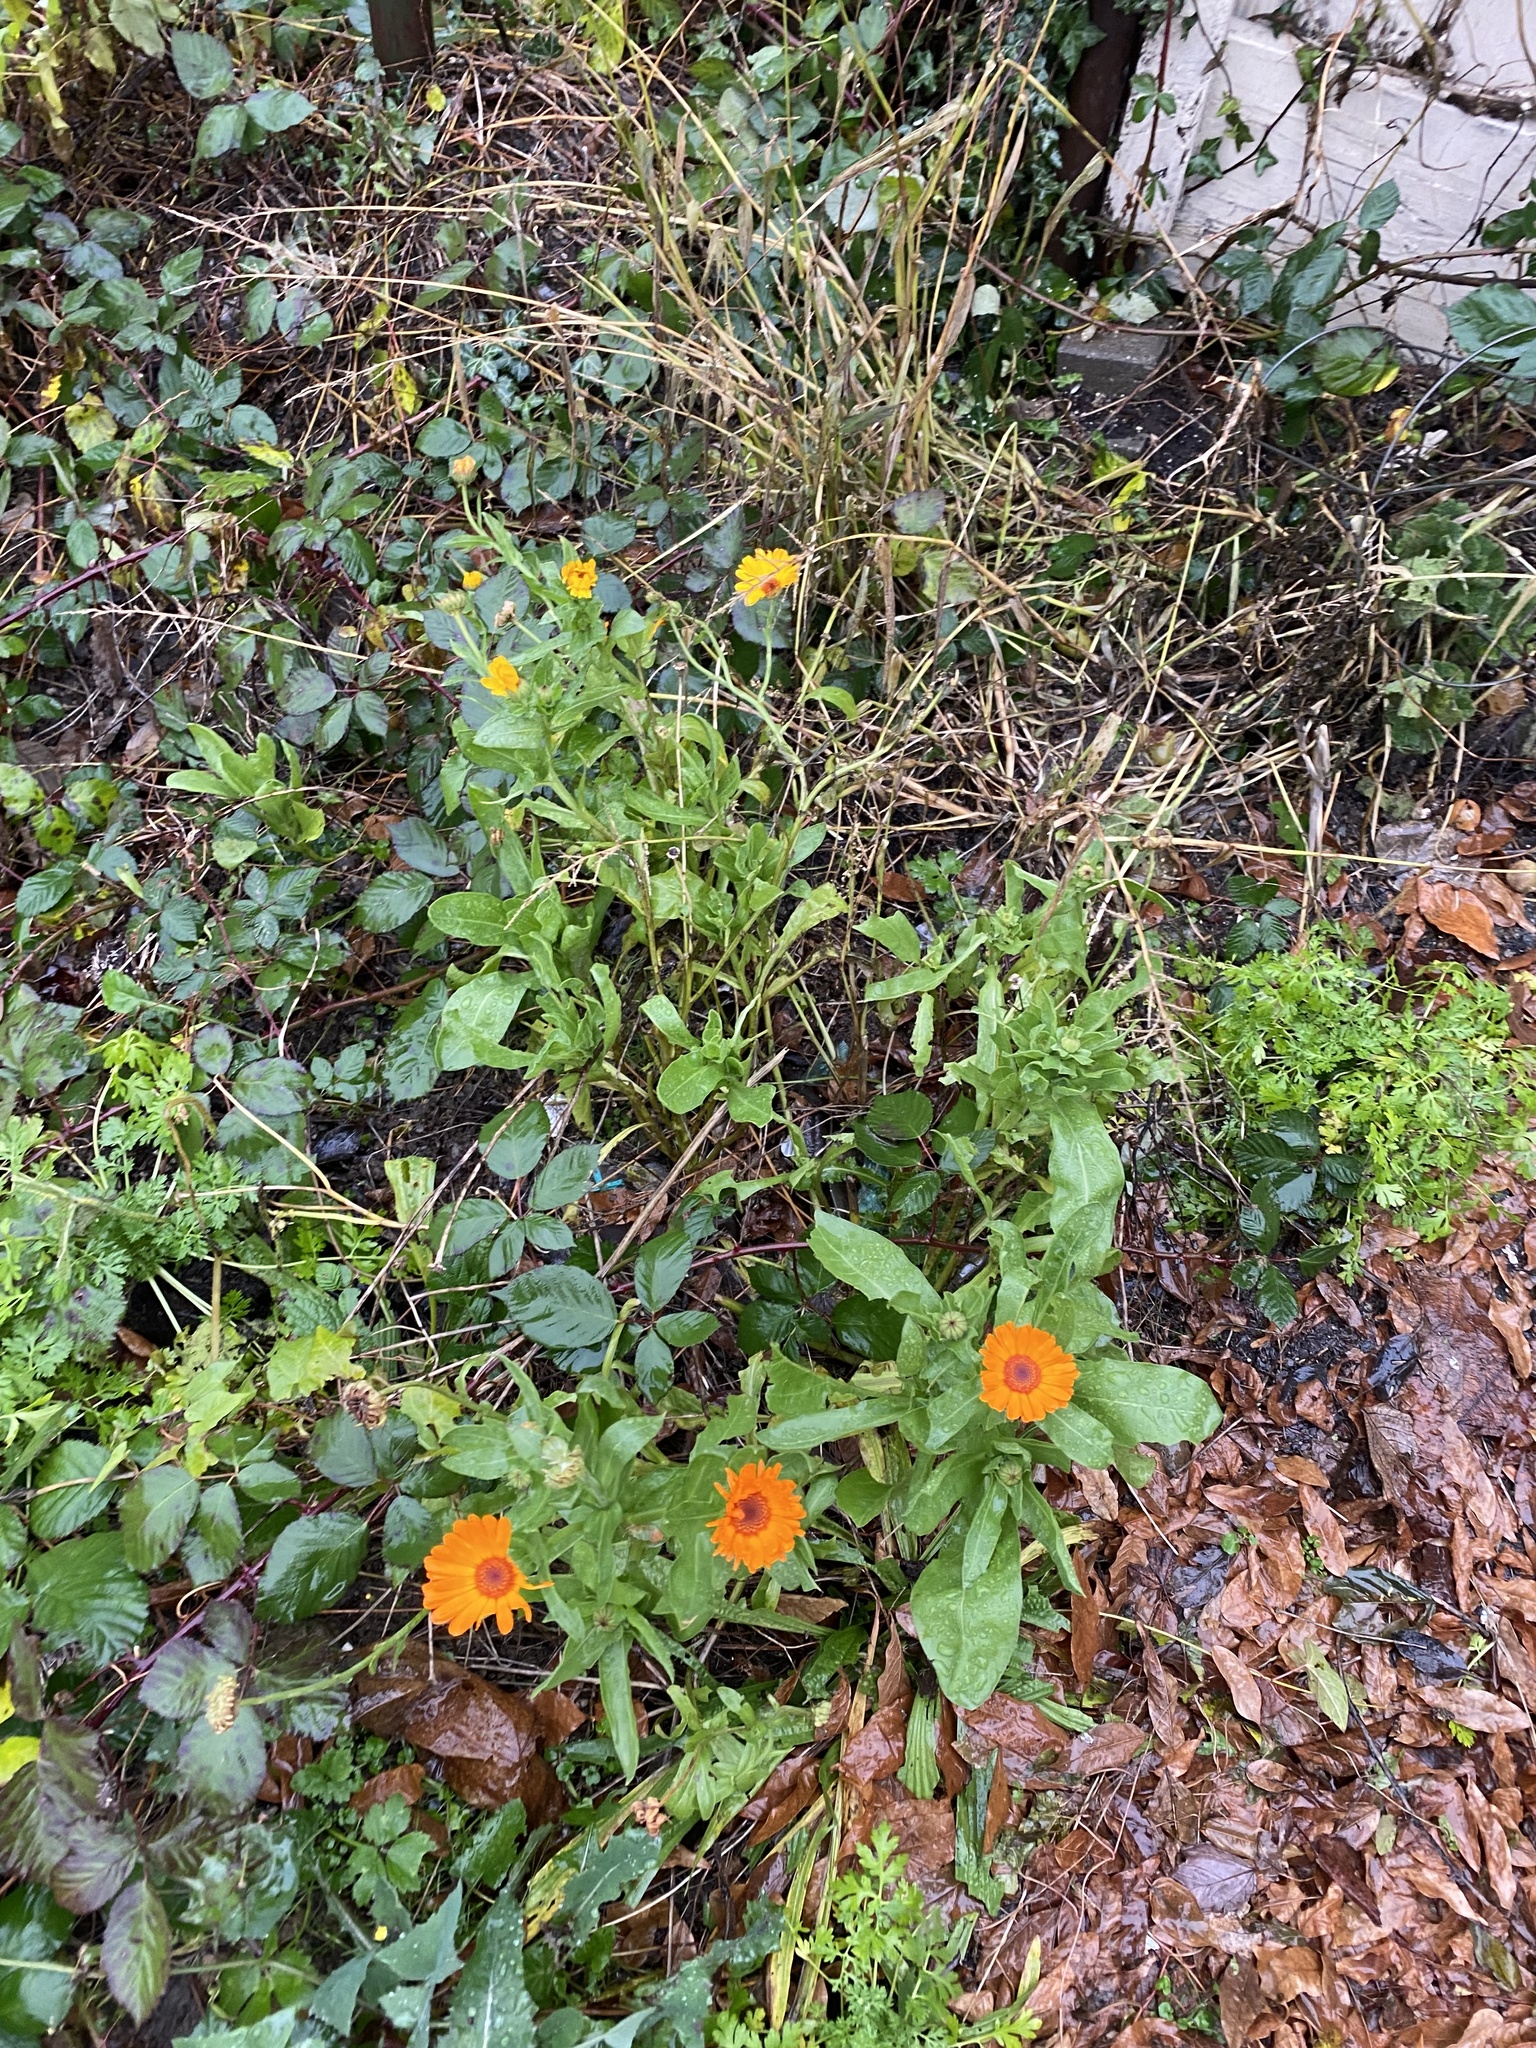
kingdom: Plantae
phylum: Tracheophyta
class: Magnoliopsida
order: Asterales
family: Asteraceae
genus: Calendula
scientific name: Calendula officinalis
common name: Pot marigold
